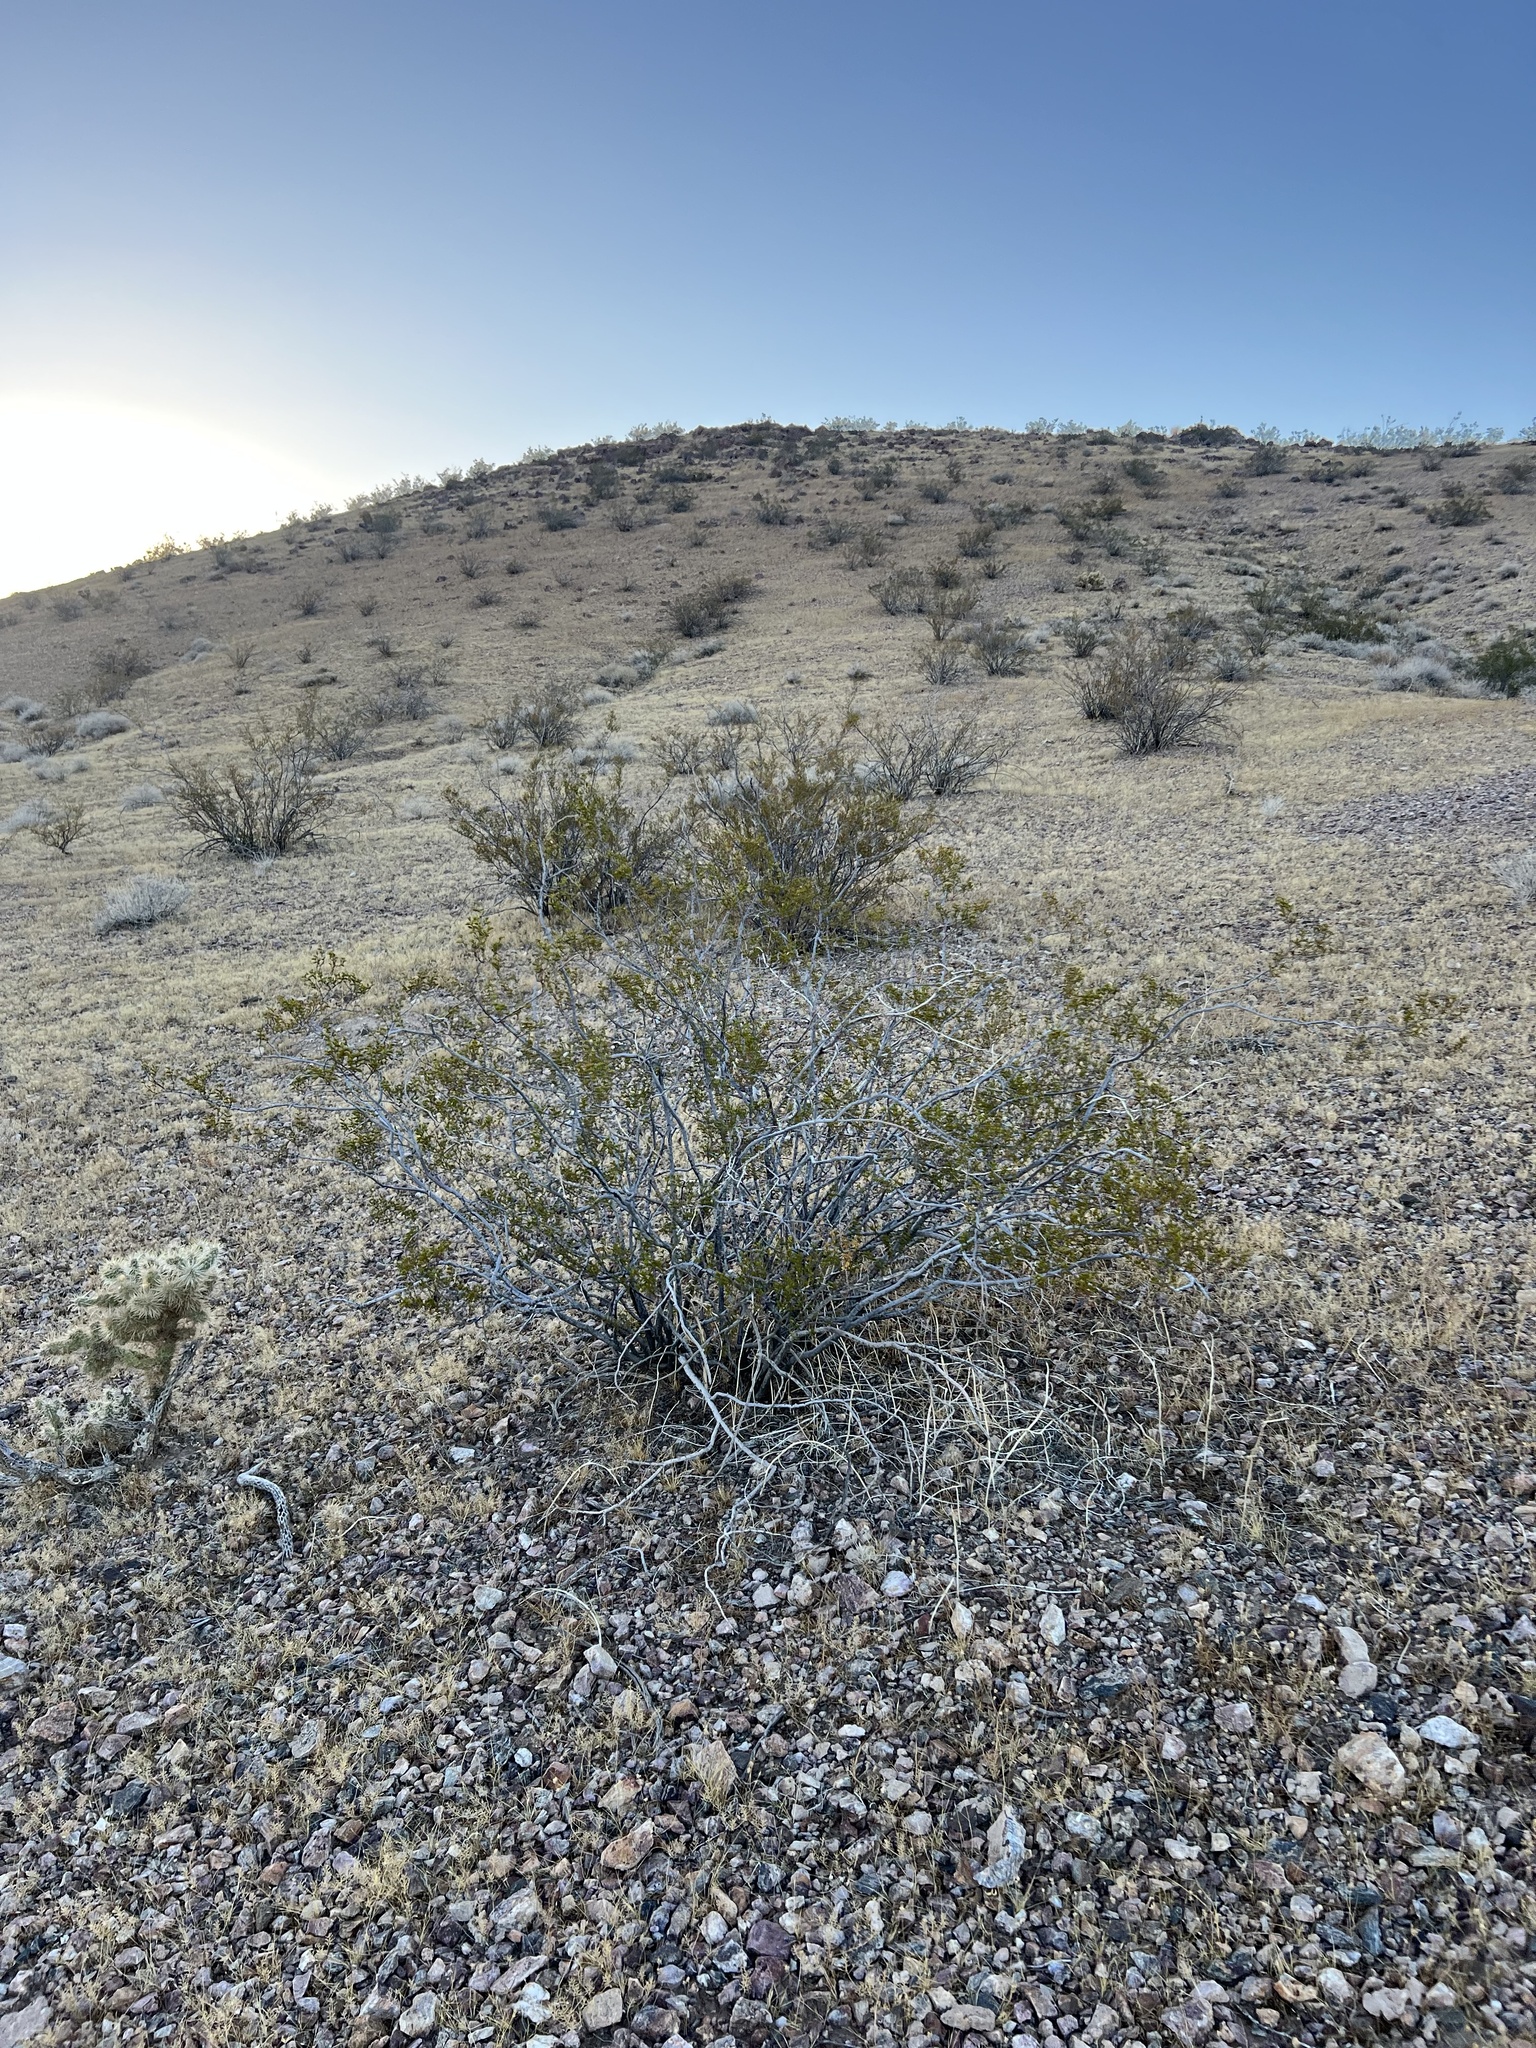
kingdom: Plantae
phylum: Tracheophyta
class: Magnoliopsida
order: Zygophyllales
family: Zygophyllaceae
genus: Larrea
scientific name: Larrea tridentata
